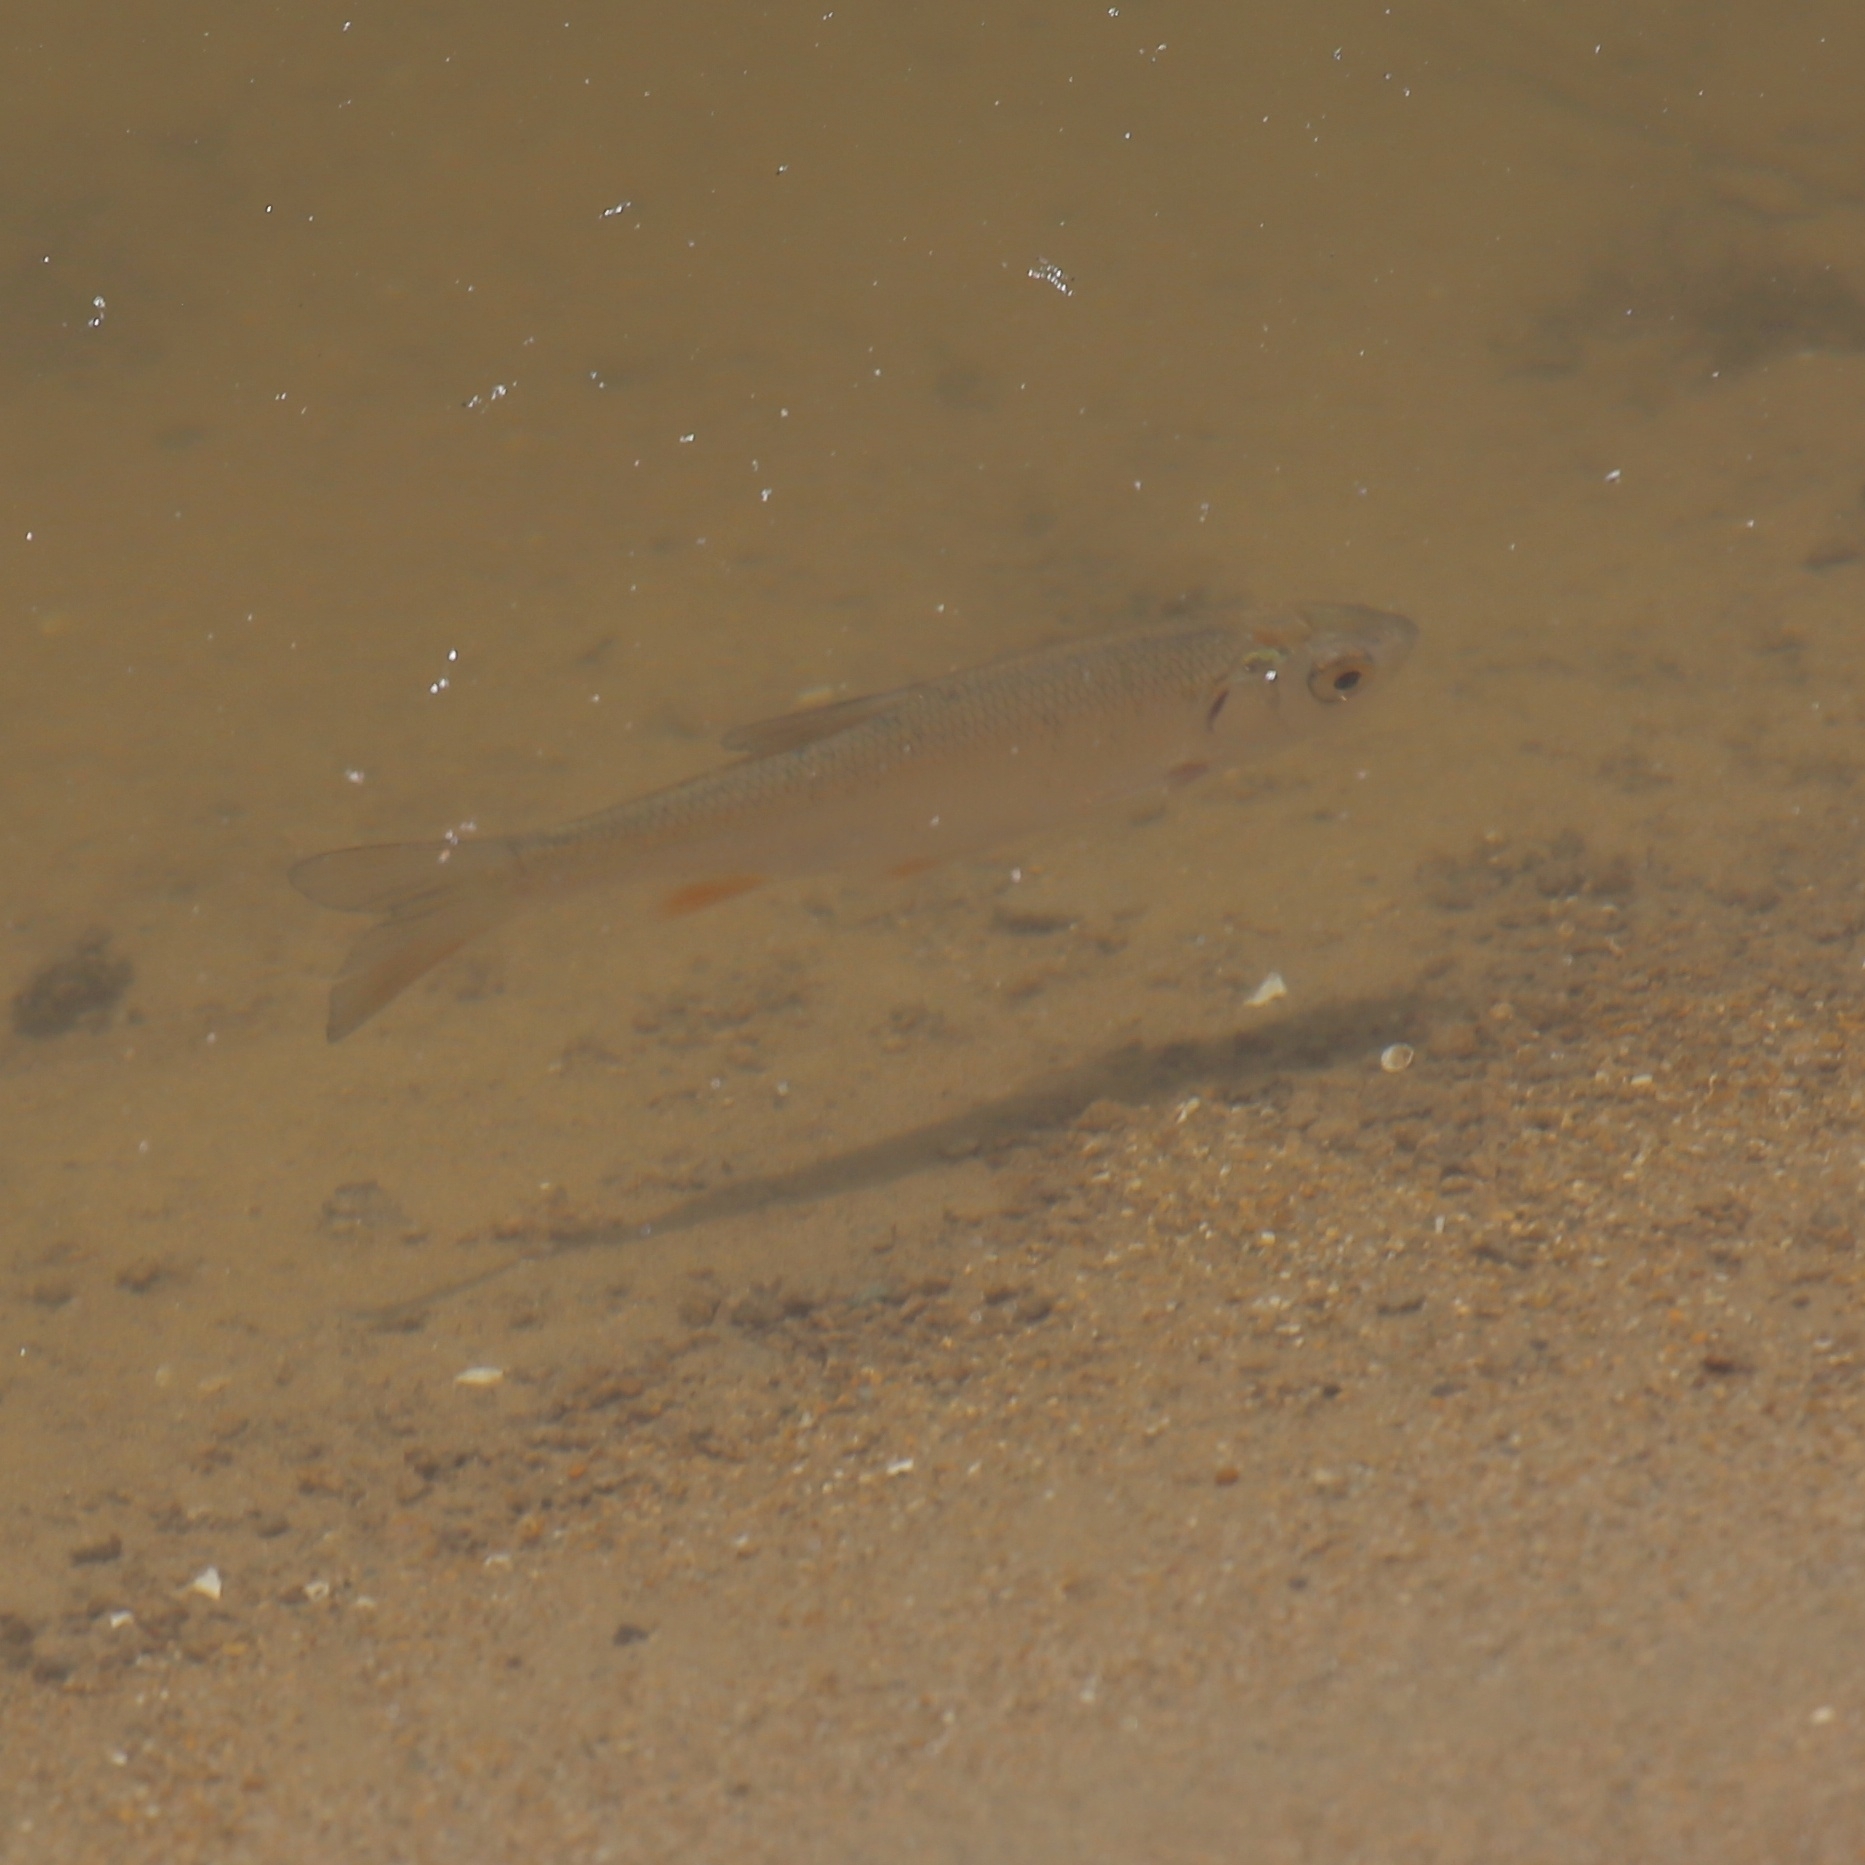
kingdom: Animalia
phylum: Chordata
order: Cypriniformes
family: Cyprinidae
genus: Leuciscus
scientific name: Leuciscus idus
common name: Ide
